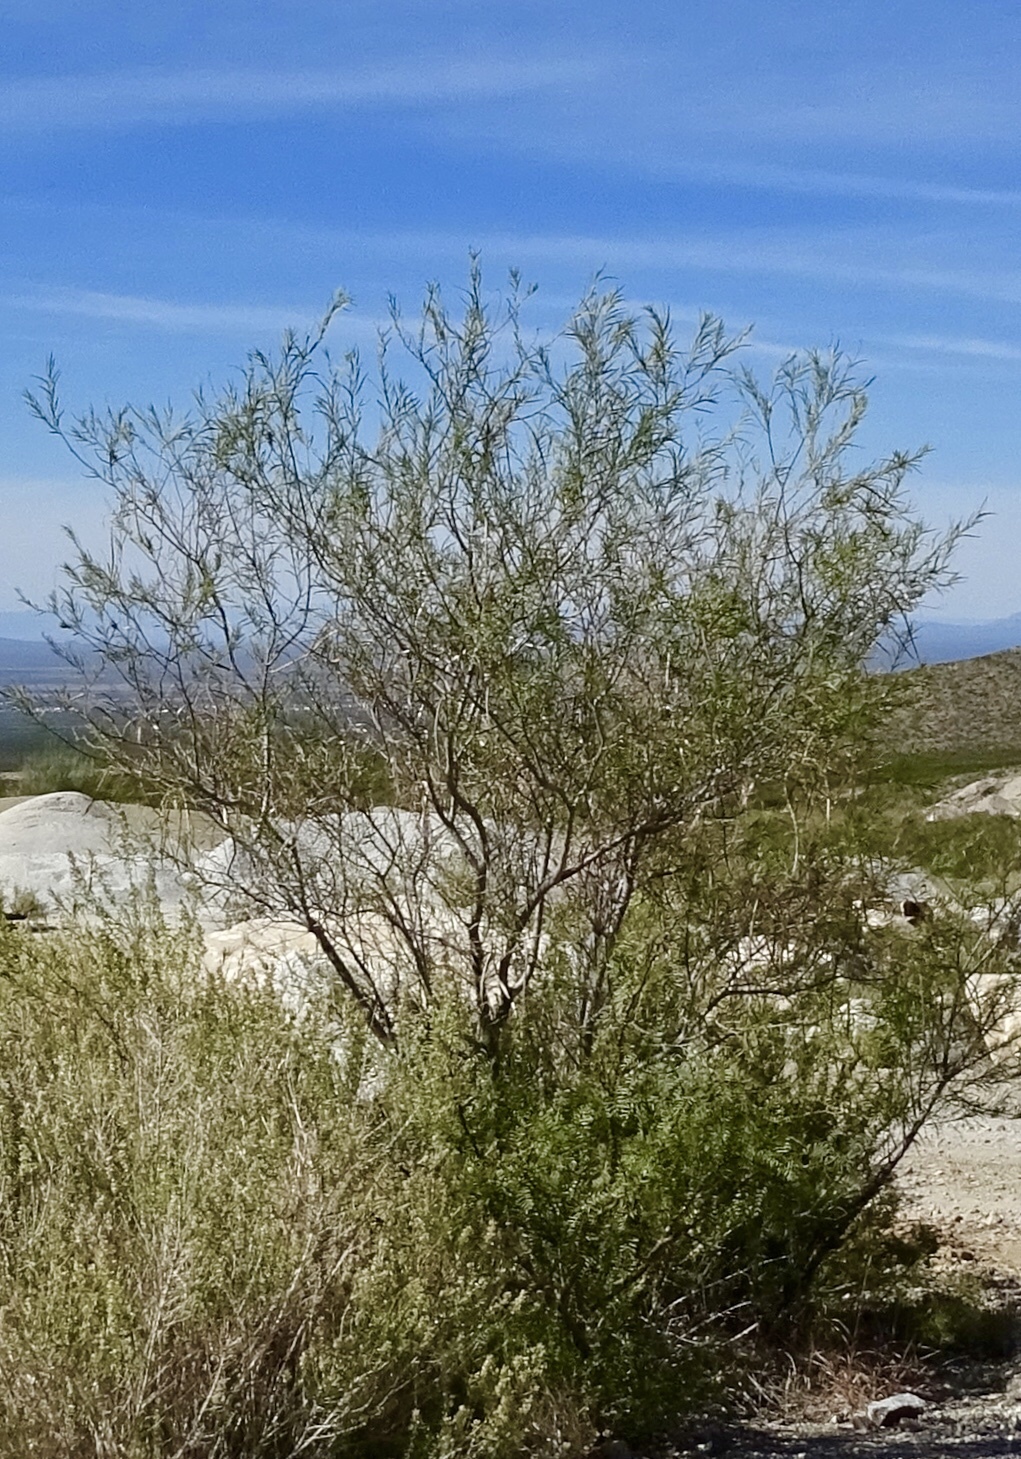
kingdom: Plantae
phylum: Tracheophyta
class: Magnoliopsida
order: Lamiales
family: Bignoniaceae
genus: Chilopsis
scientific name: Chilopsis linearis
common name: Desert-willow
